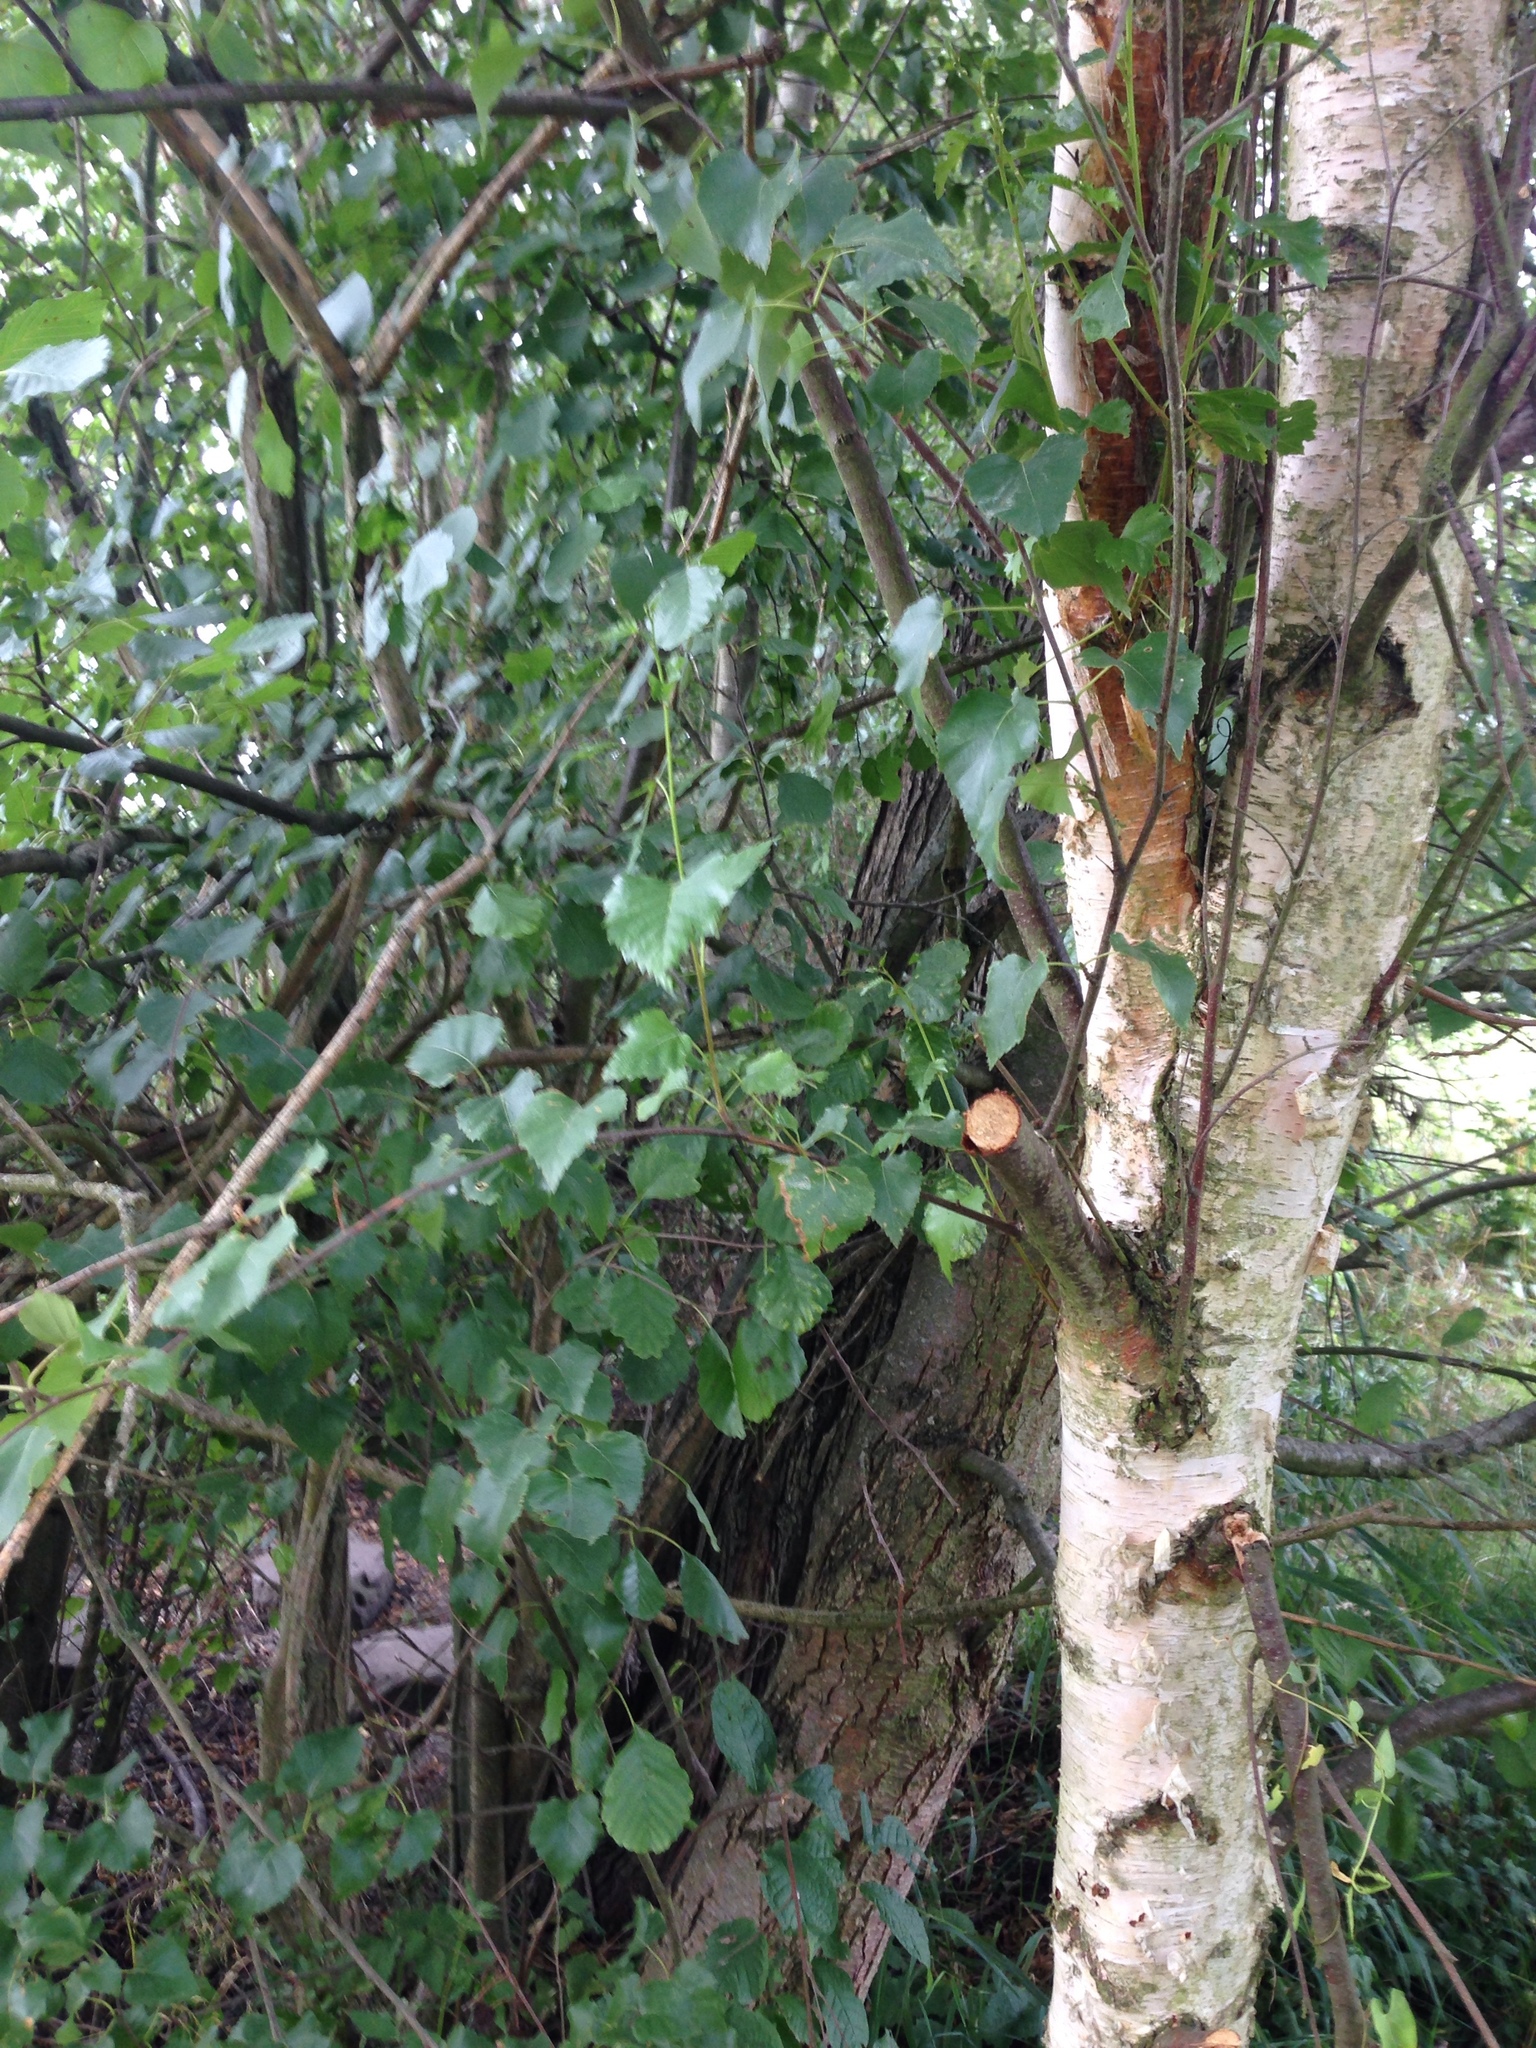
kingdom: Plantae
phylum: Tracheophyta
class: Magnoliopsida
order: Fagales
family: Betulaceae
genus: Betula
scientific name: Betula pendula
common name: Silver birch
